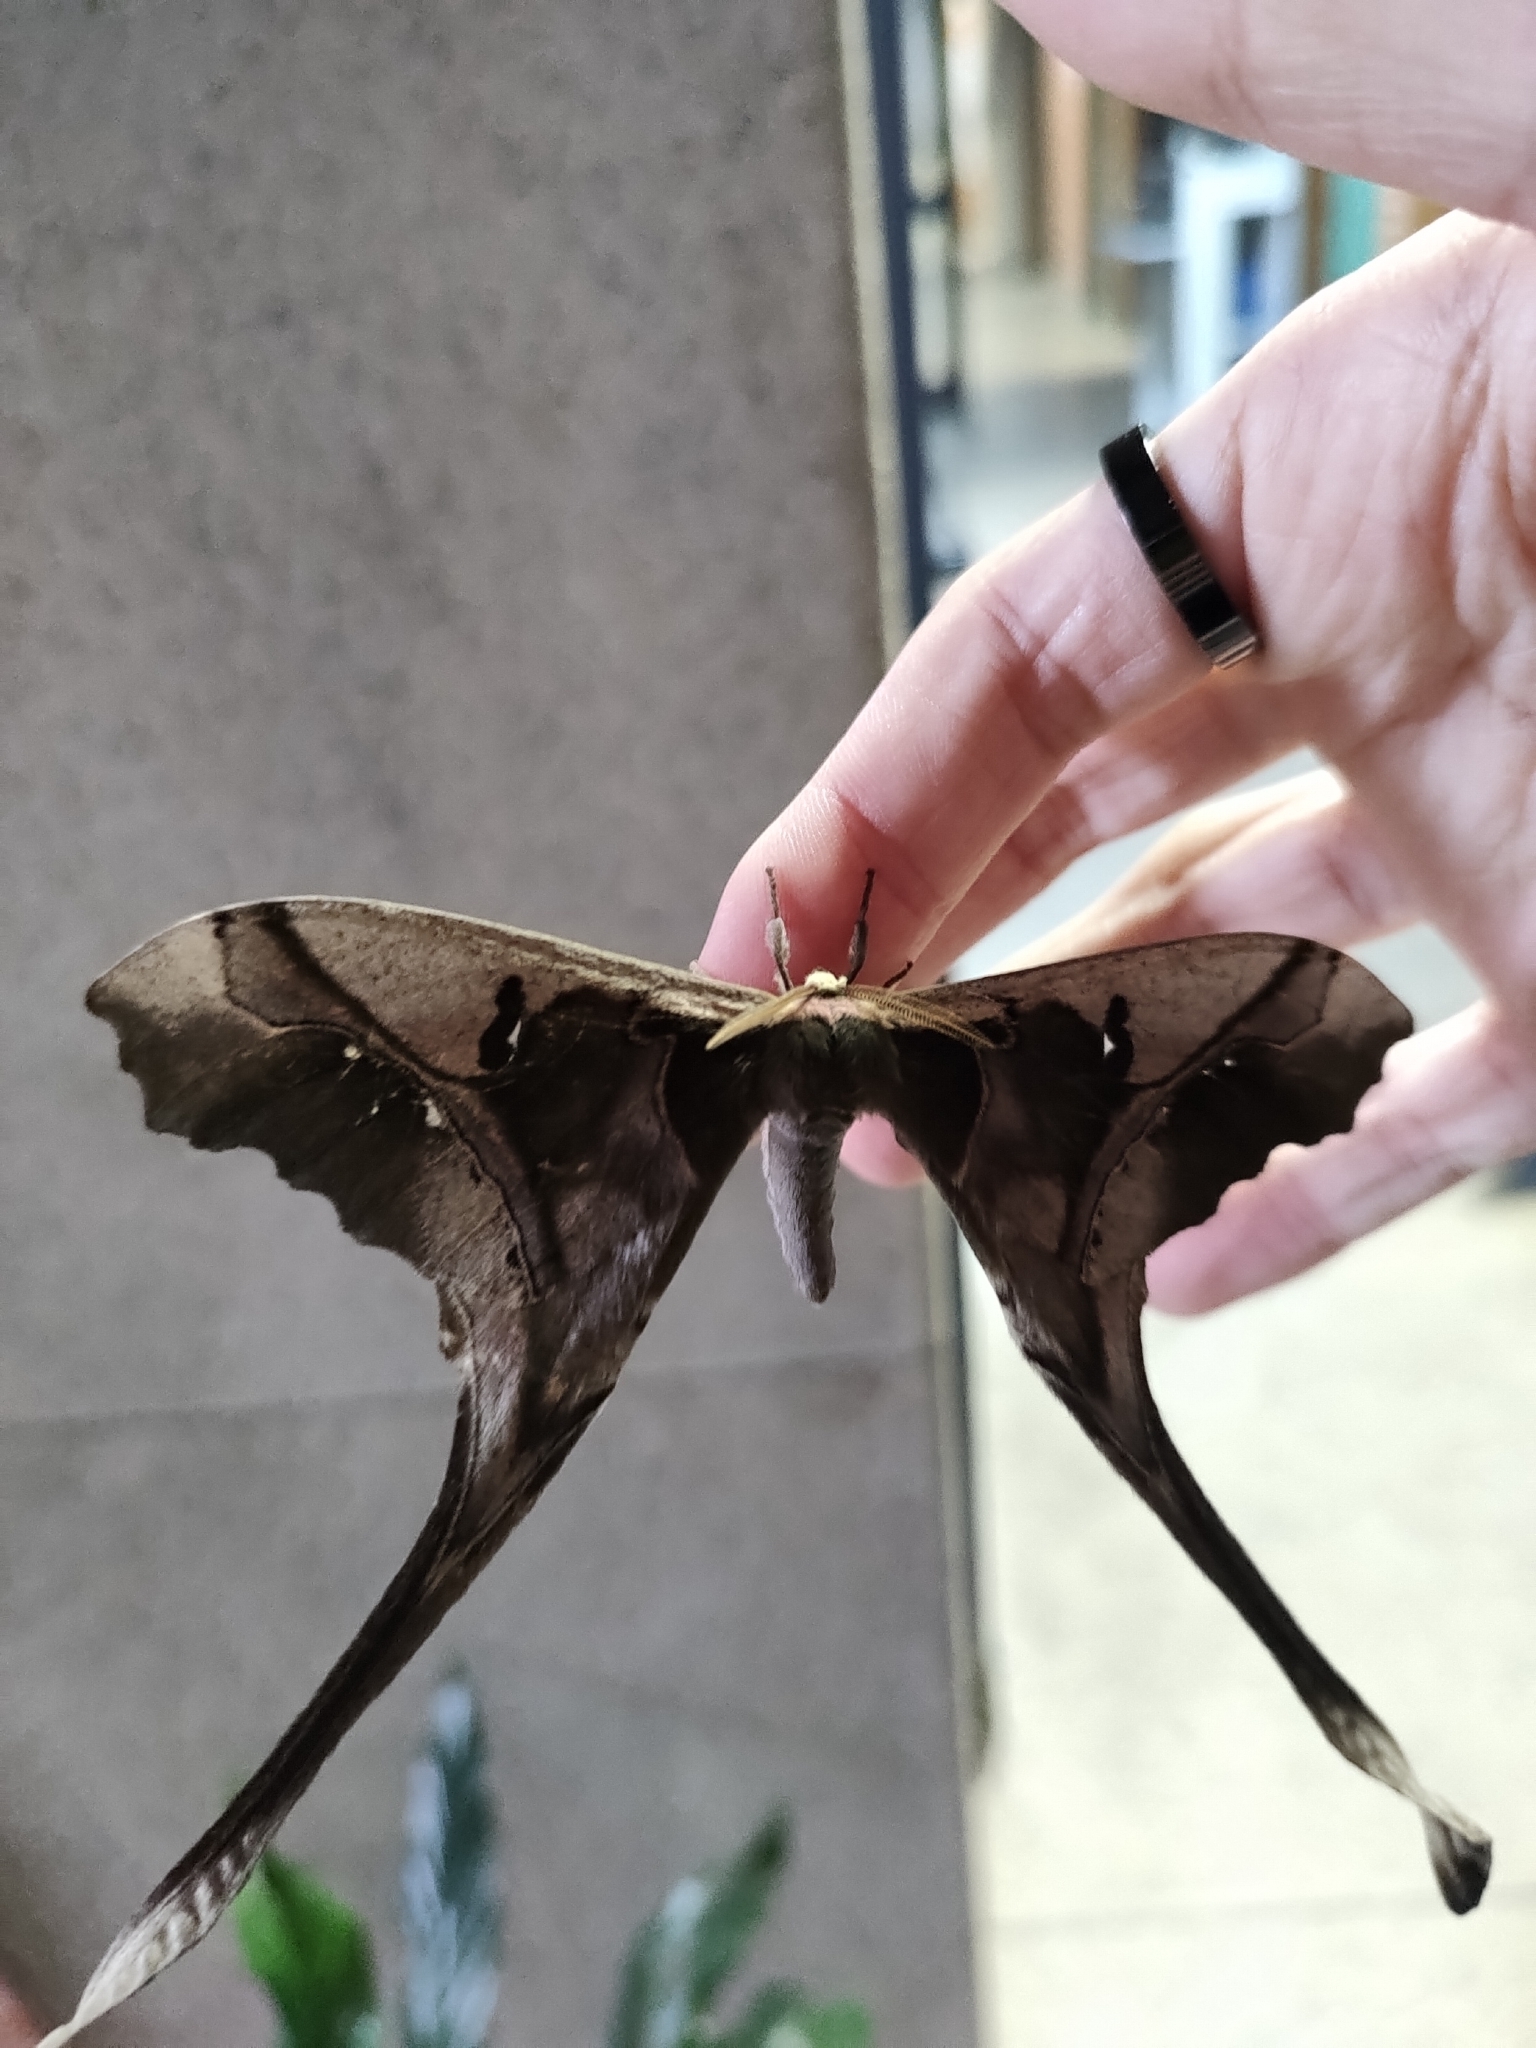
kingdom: Animalia
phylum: Arthropoda
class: Insecta
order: Lepidoptera
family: Saturniidae
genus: Copiopteryx
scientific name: Copiopteryx sonthonnaxi
